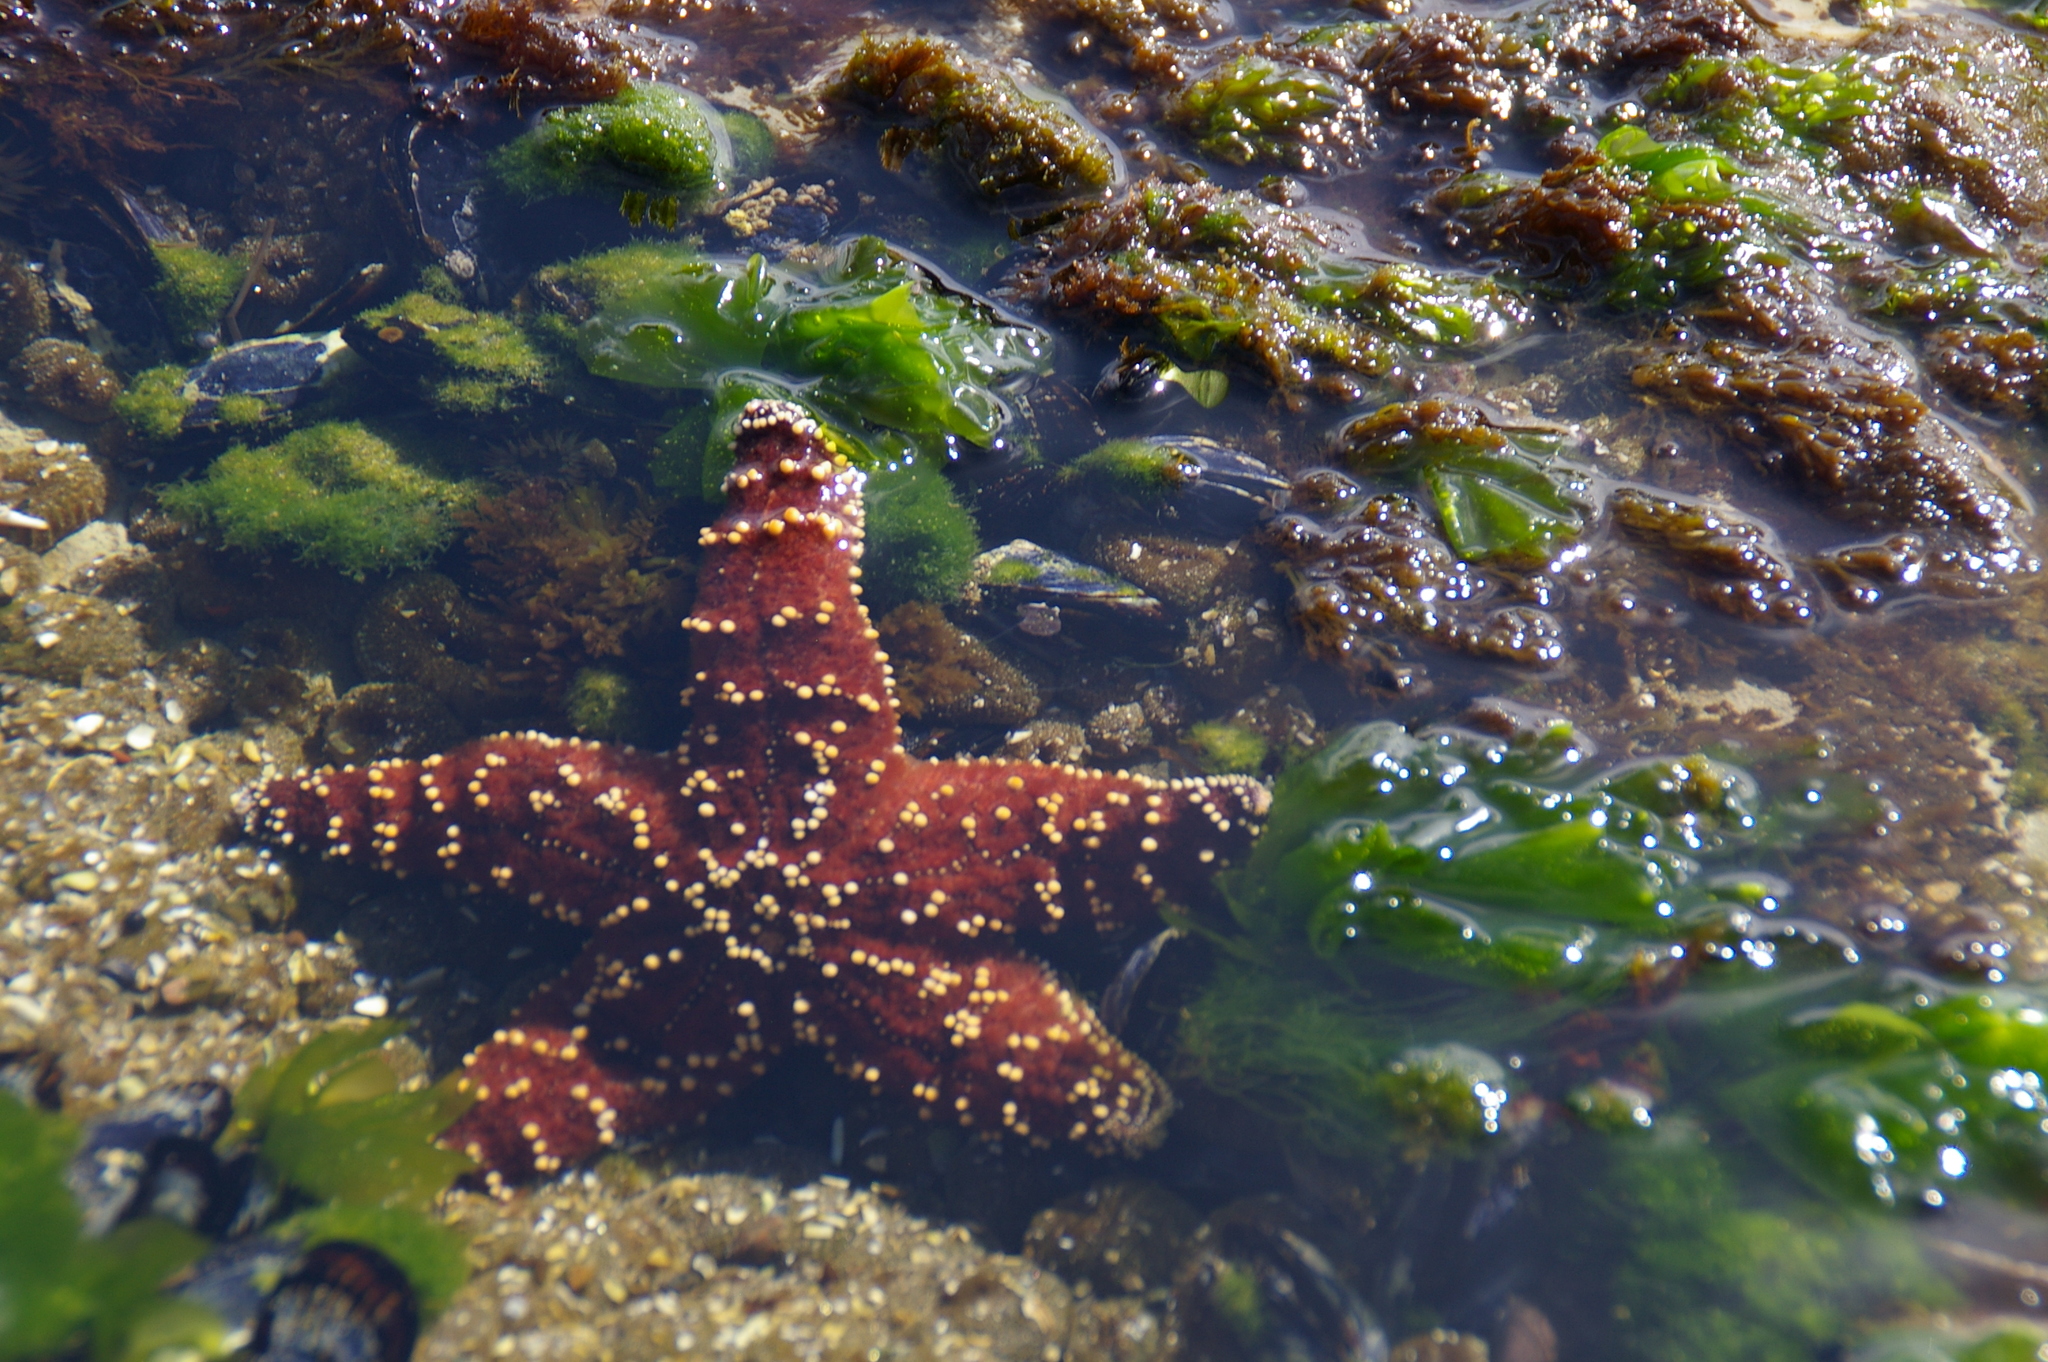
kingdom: Animalia
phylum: Echinodermata
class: Asteroidea
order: Forcipulatida
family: Asteriidae
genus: Pisaster
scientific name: Pisaster ochraceus
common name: Ochre stars
